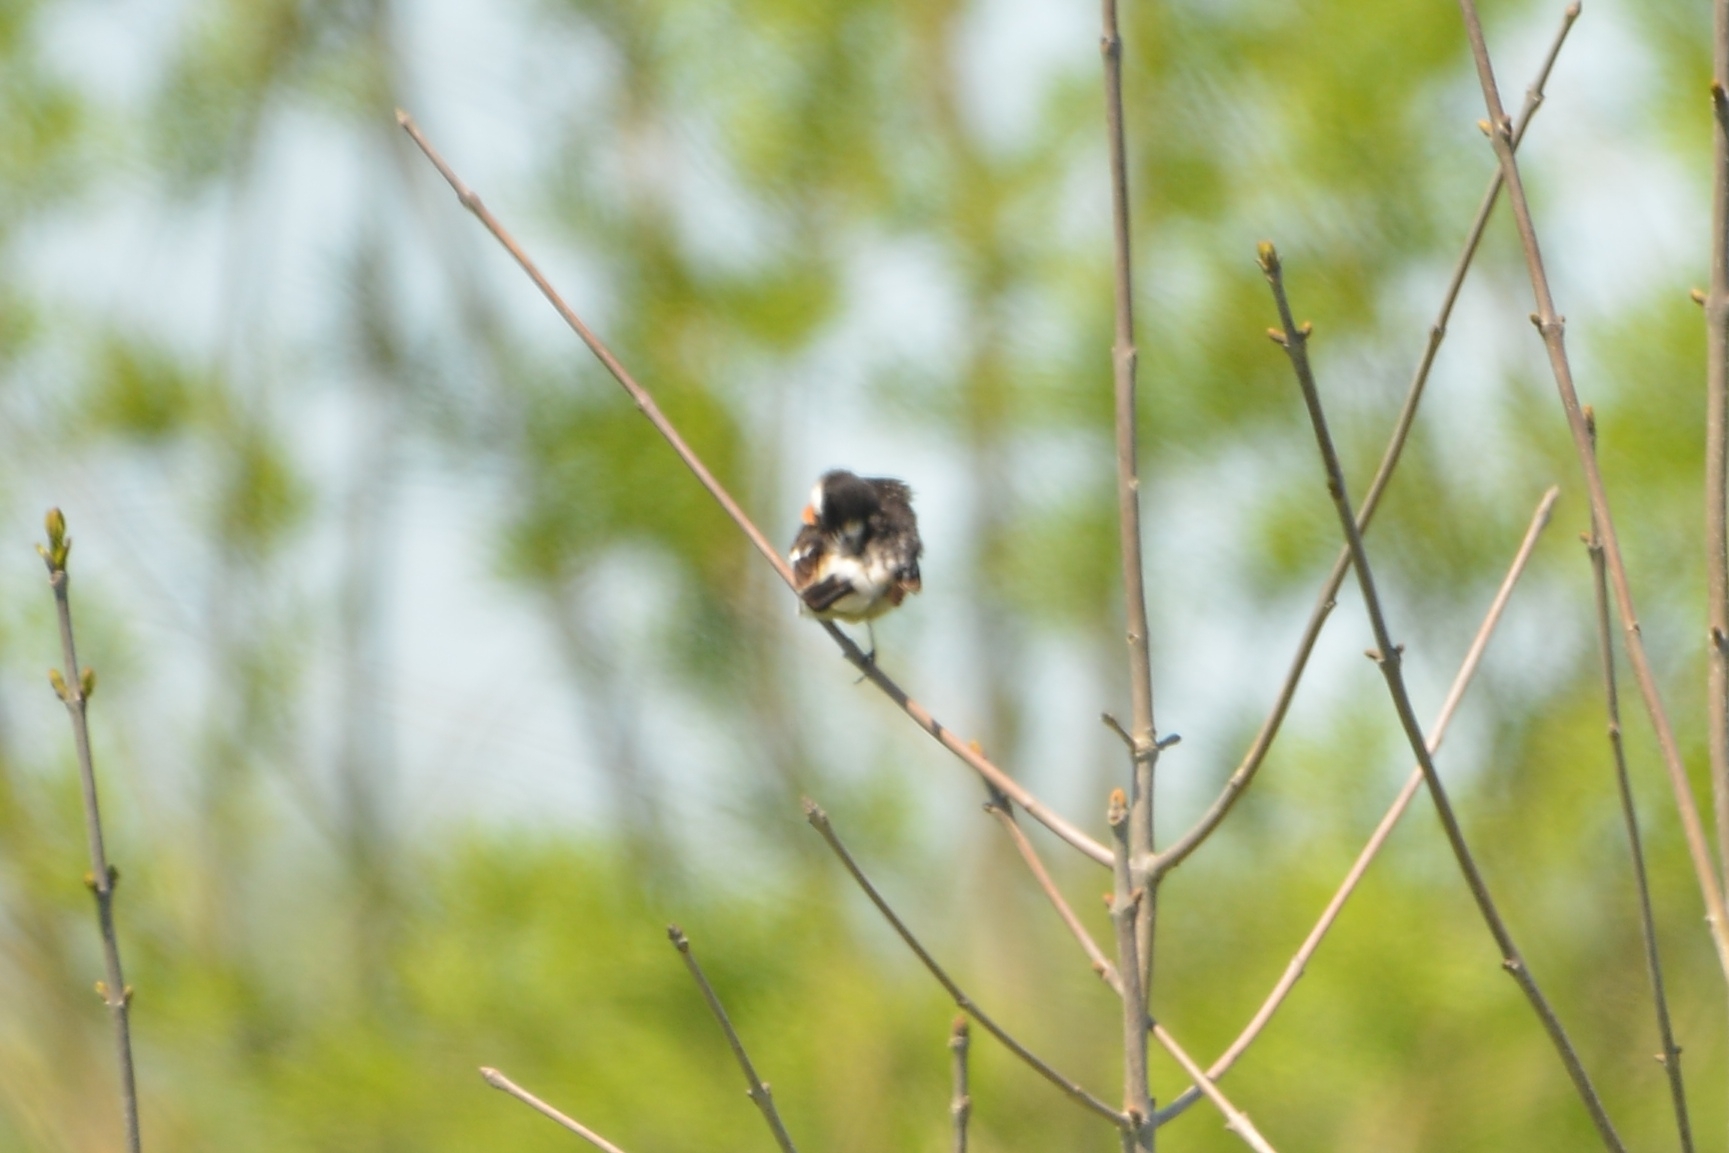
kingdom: Animalia
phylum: Chordata
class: Aves
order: Passeriformes
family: Muscicapidae
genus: Saxicola
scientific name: Saxicola stejnegeri
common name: Stejneger's stonechat
